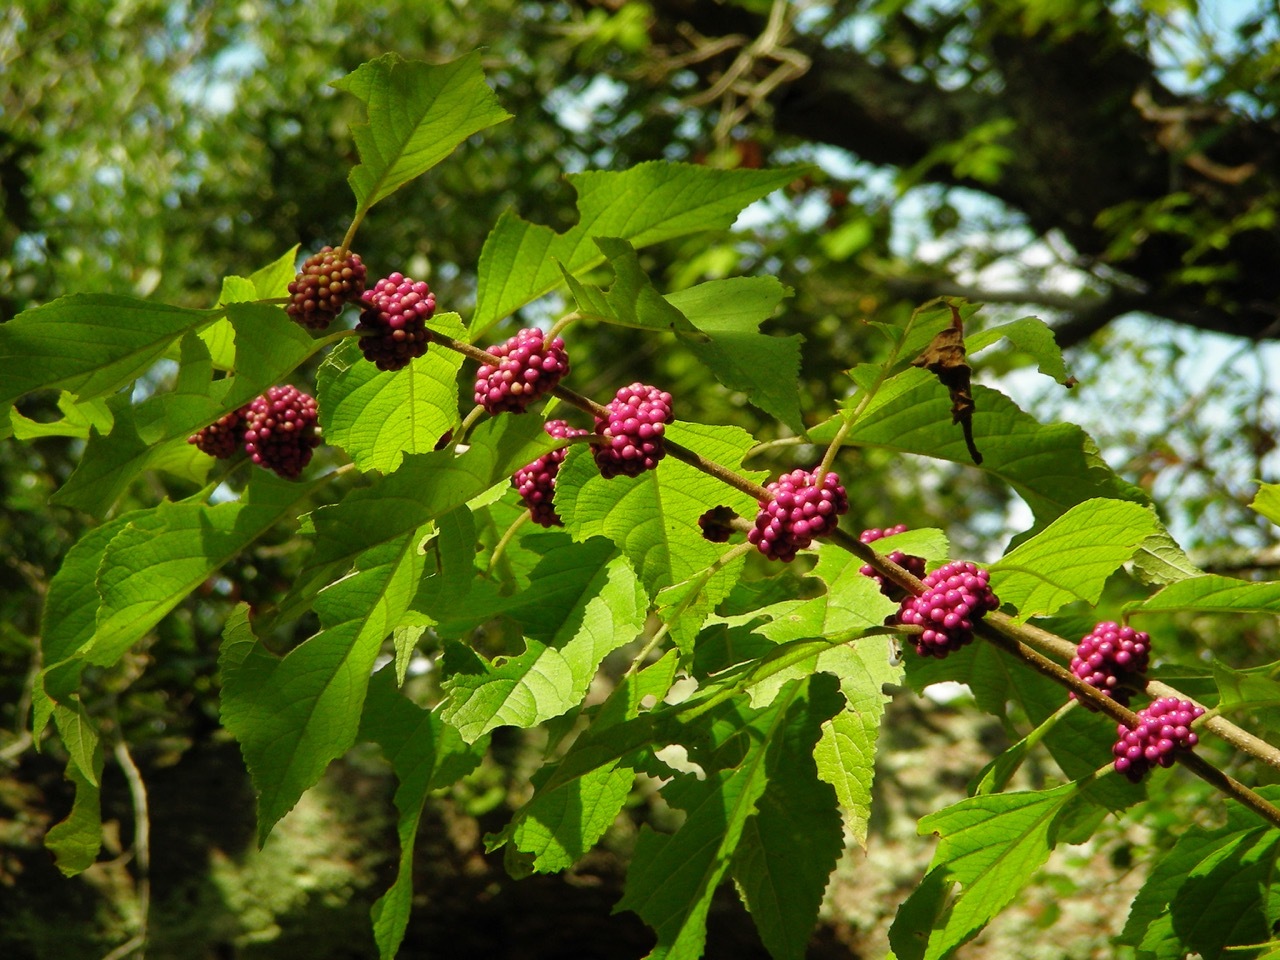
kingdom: Plantae
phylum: Tracheophyta
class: Magnoliopsida
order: Lamiales
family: Lamiaceae
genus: Callicarpa
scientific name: Callicarpa americana
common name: American beautyberry
